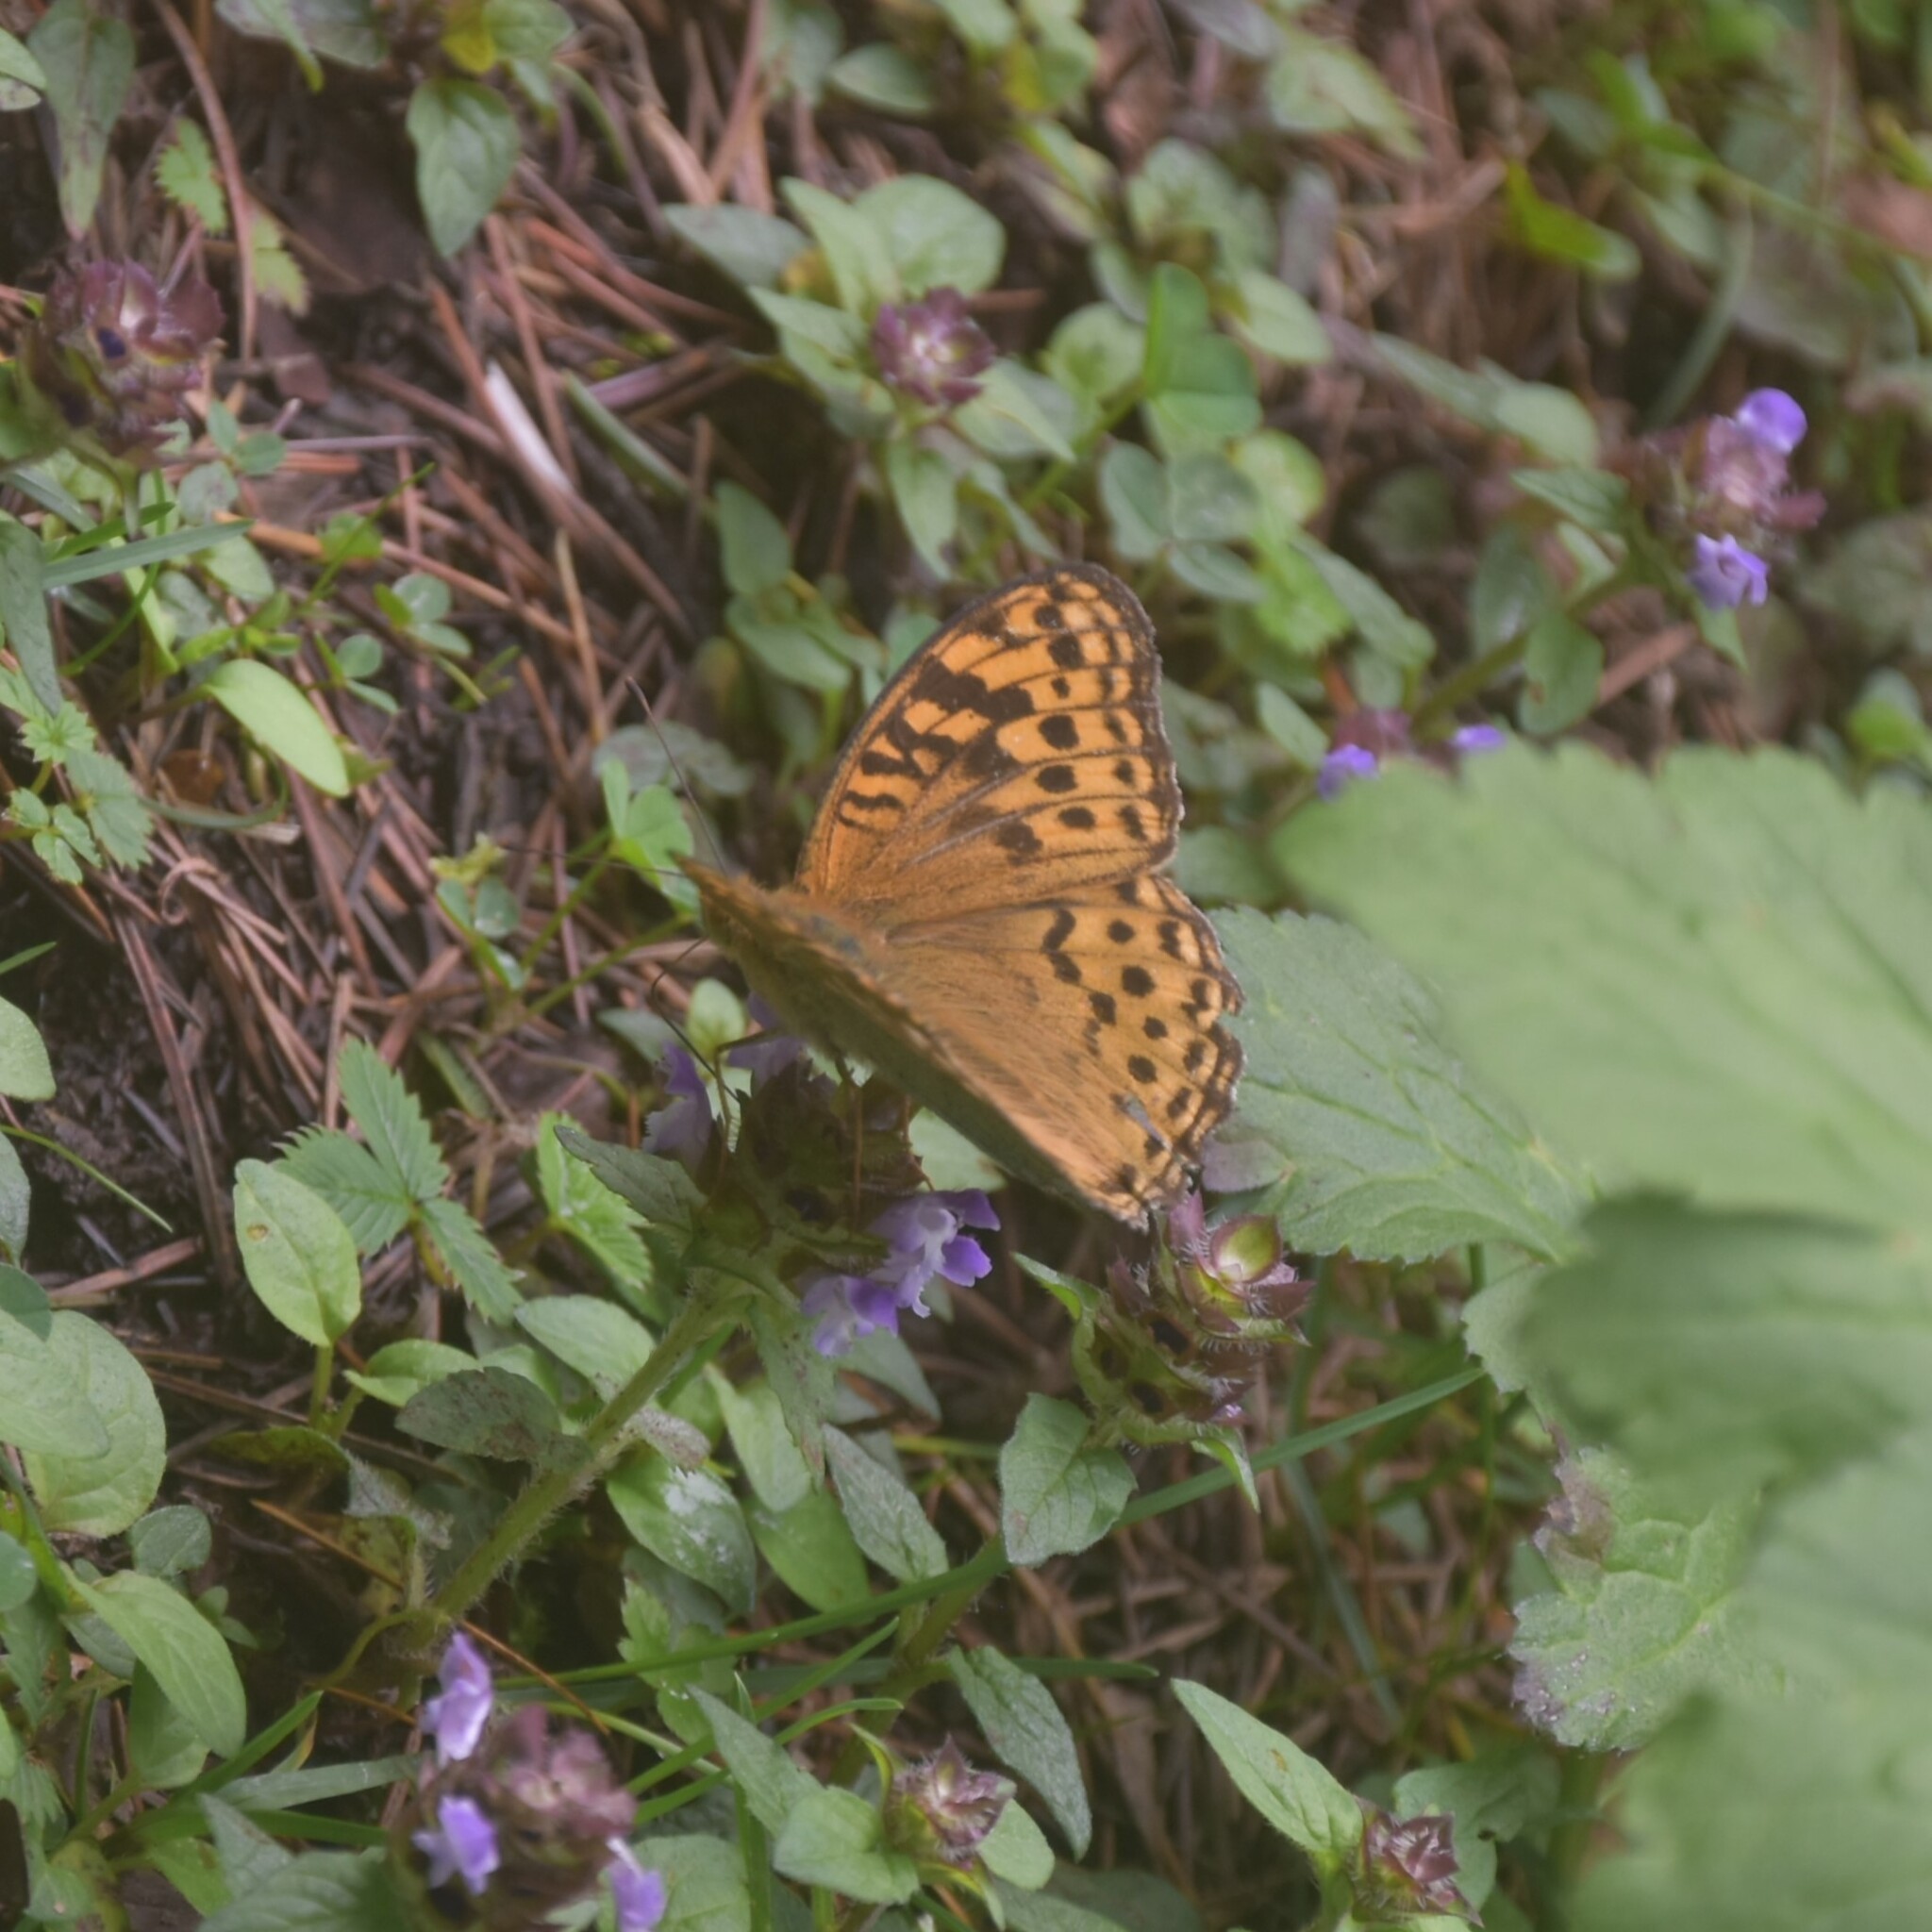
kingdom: Animalia
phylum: Arthropoda
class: Insecta
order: Lepidoptera
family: Nymphalidae
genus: Fabriciana
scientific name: Fabriciana kamala
